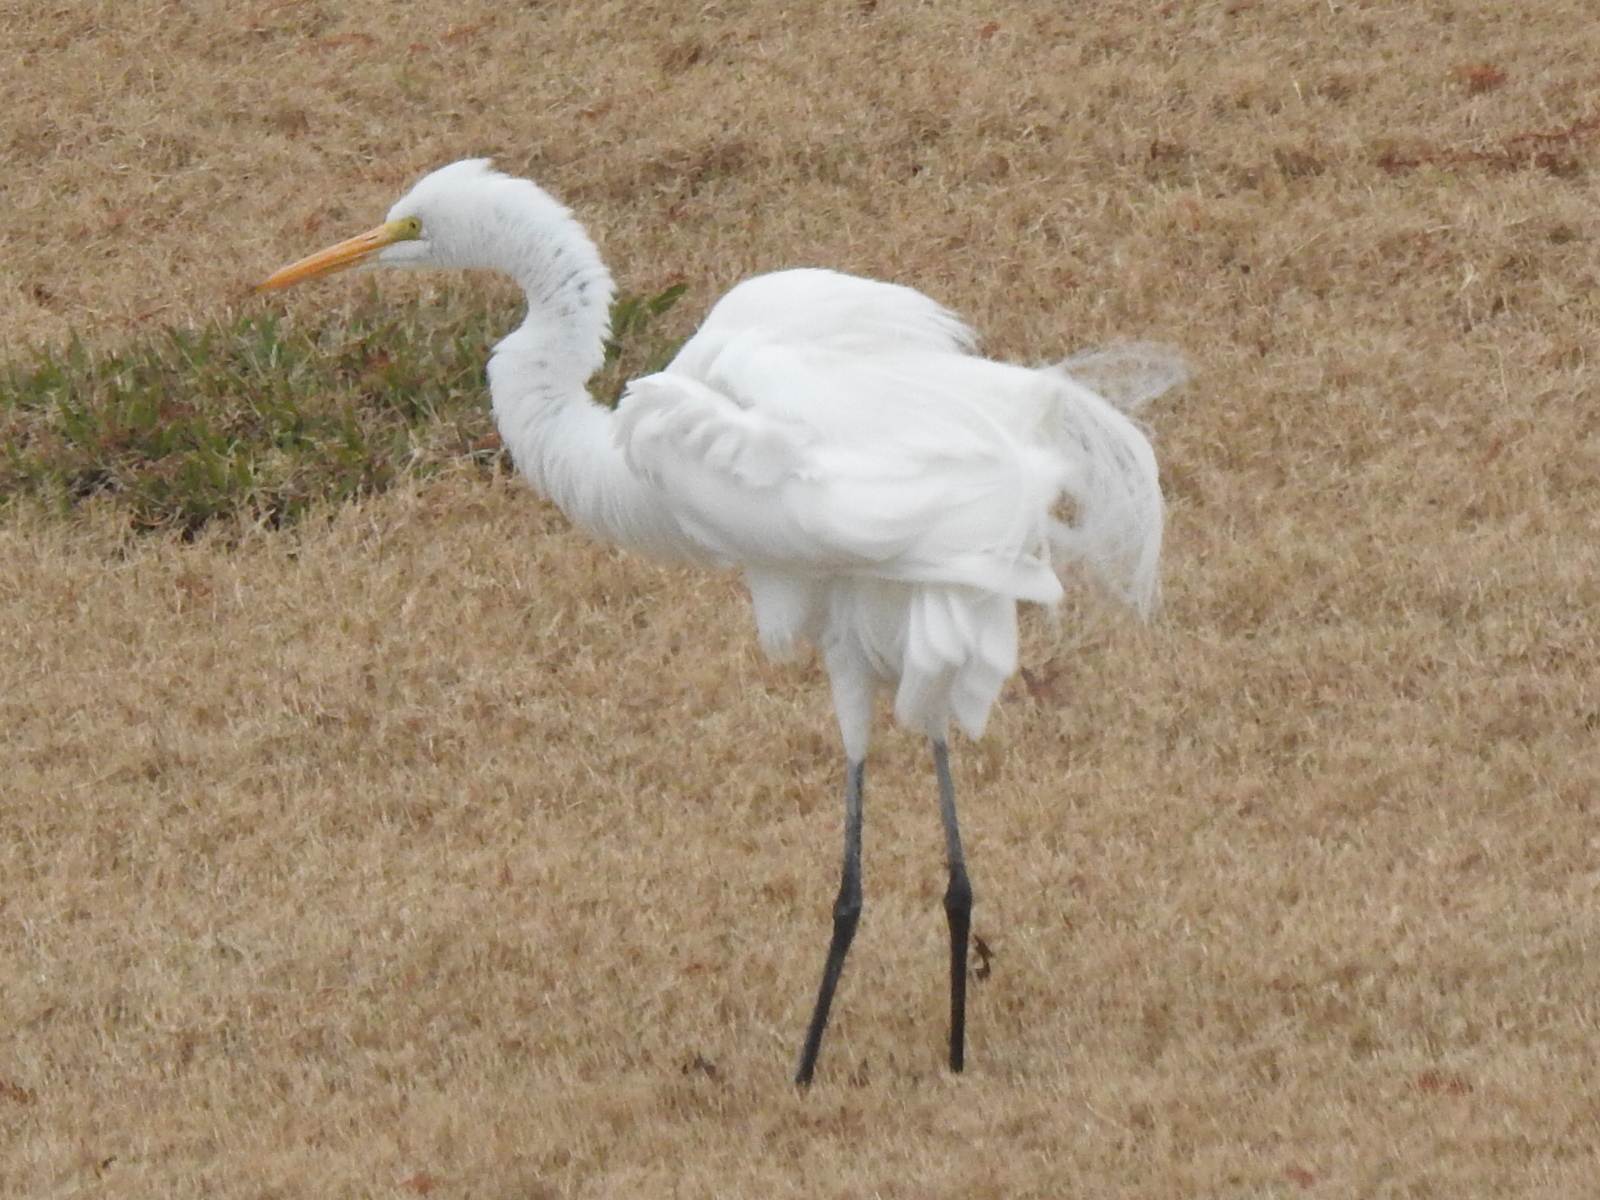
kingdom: Animalia
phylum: Chordata
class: Aves
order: Pelecaniformes
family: Ardeidae
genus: Ardea
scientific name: Ardea alba
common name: Great egret
